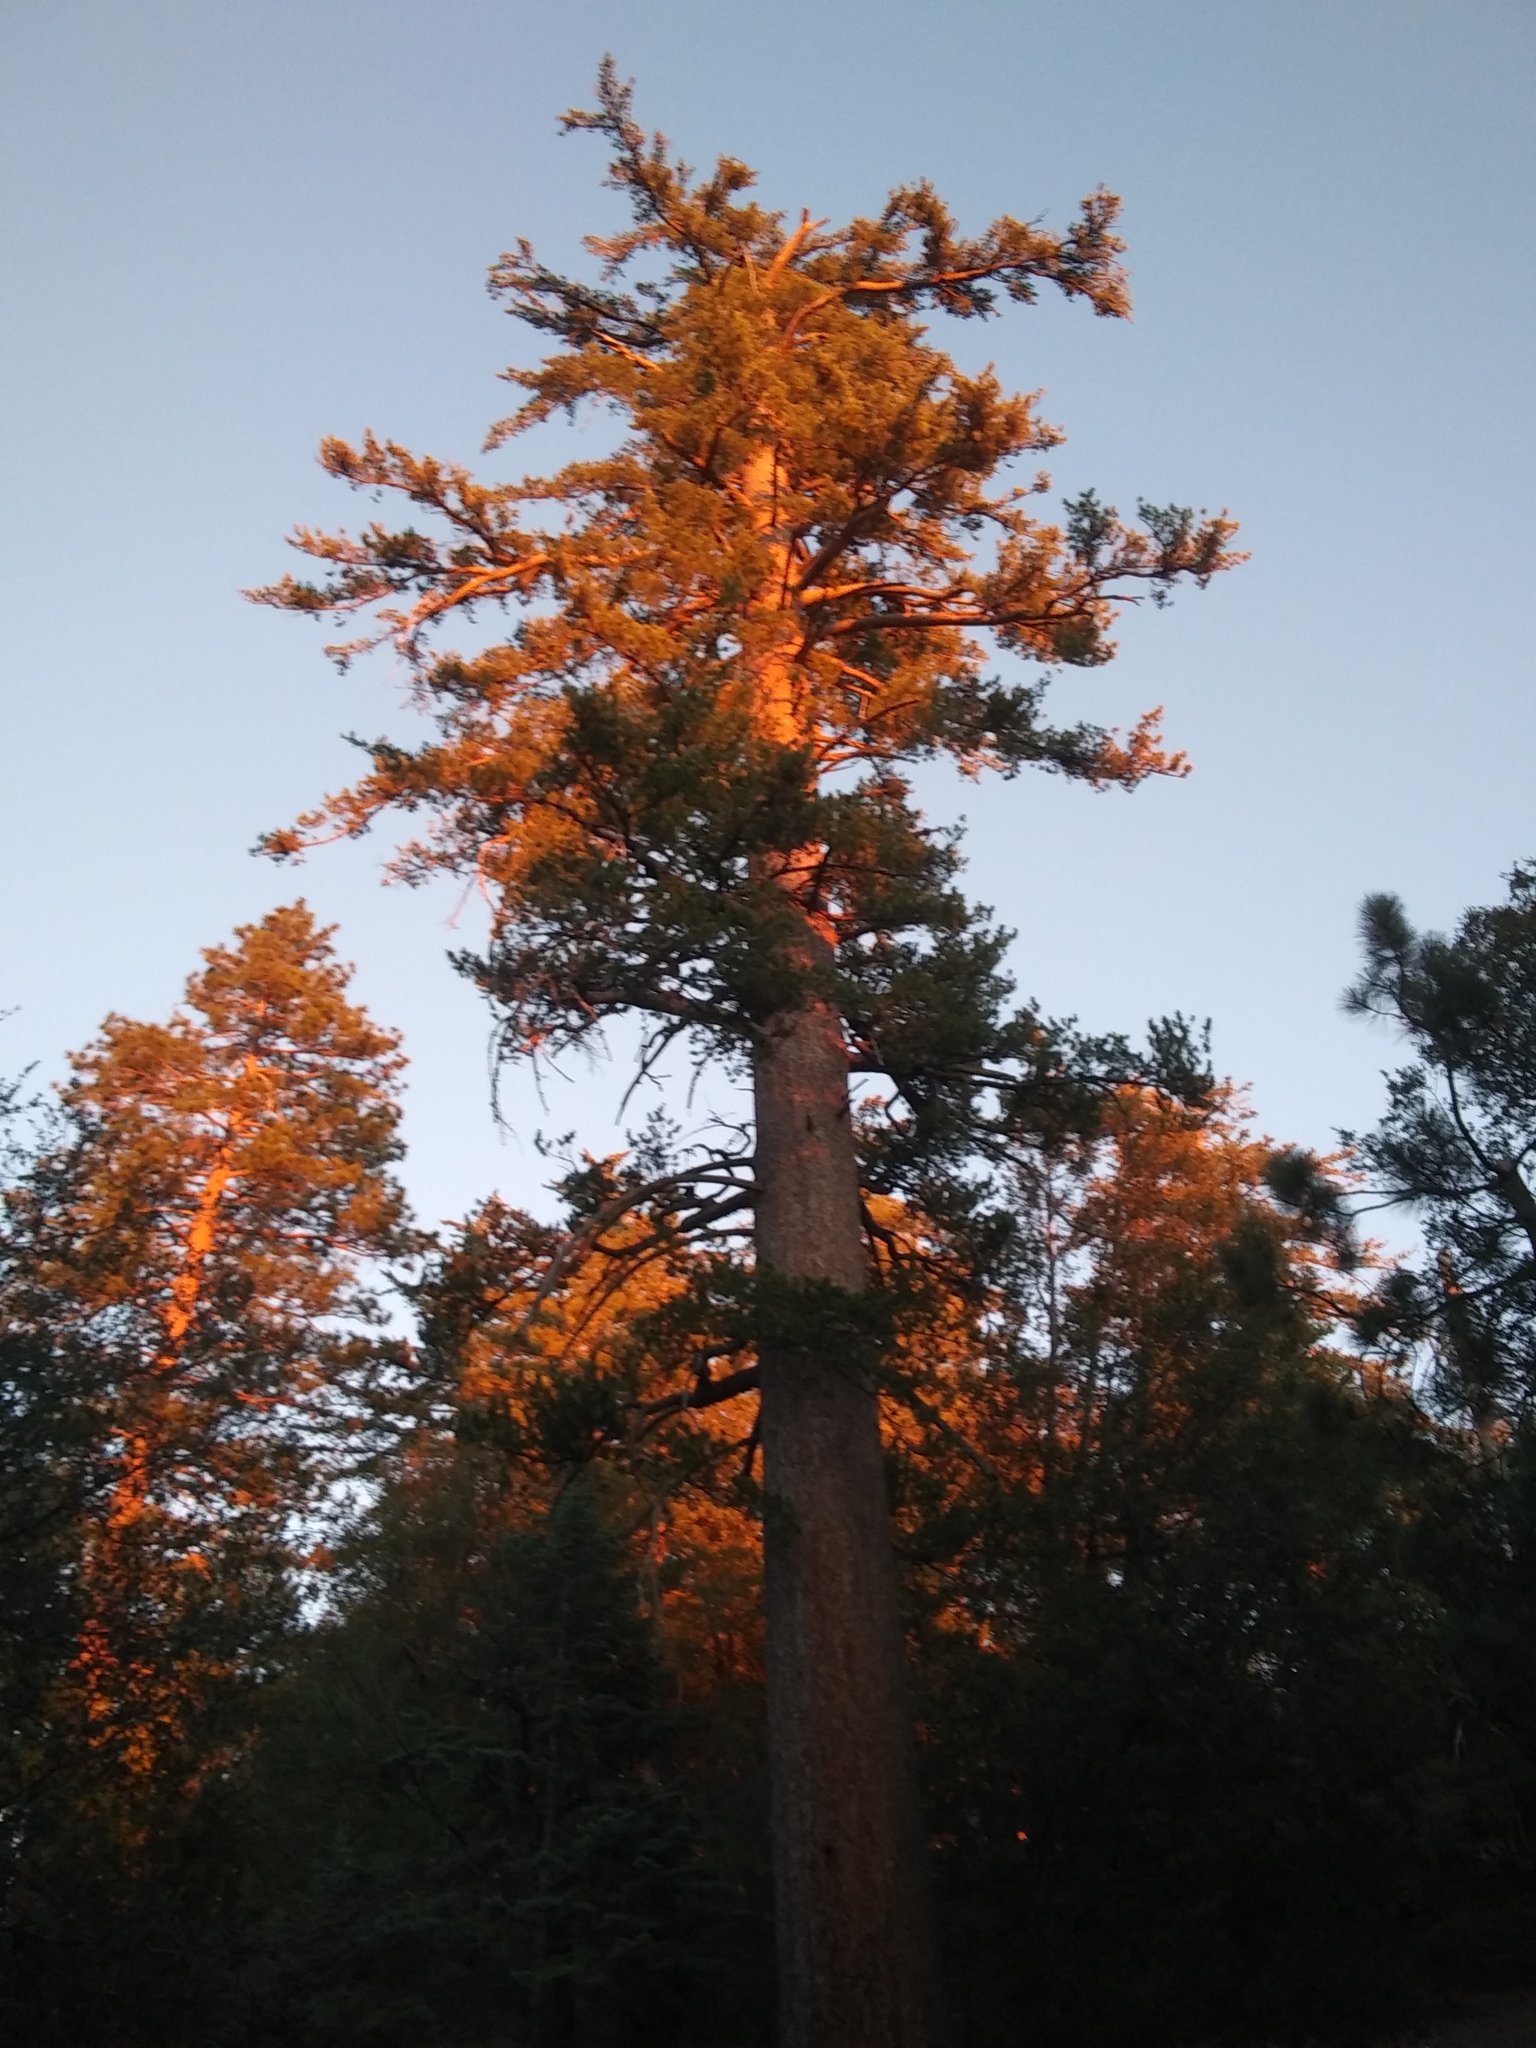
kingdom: Plantae
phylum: Tracheophyta
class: Pinopsida
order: Pinales
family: Pinaceae
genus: Pinus
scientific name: Pinus lambertiana
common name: Sugar pine
